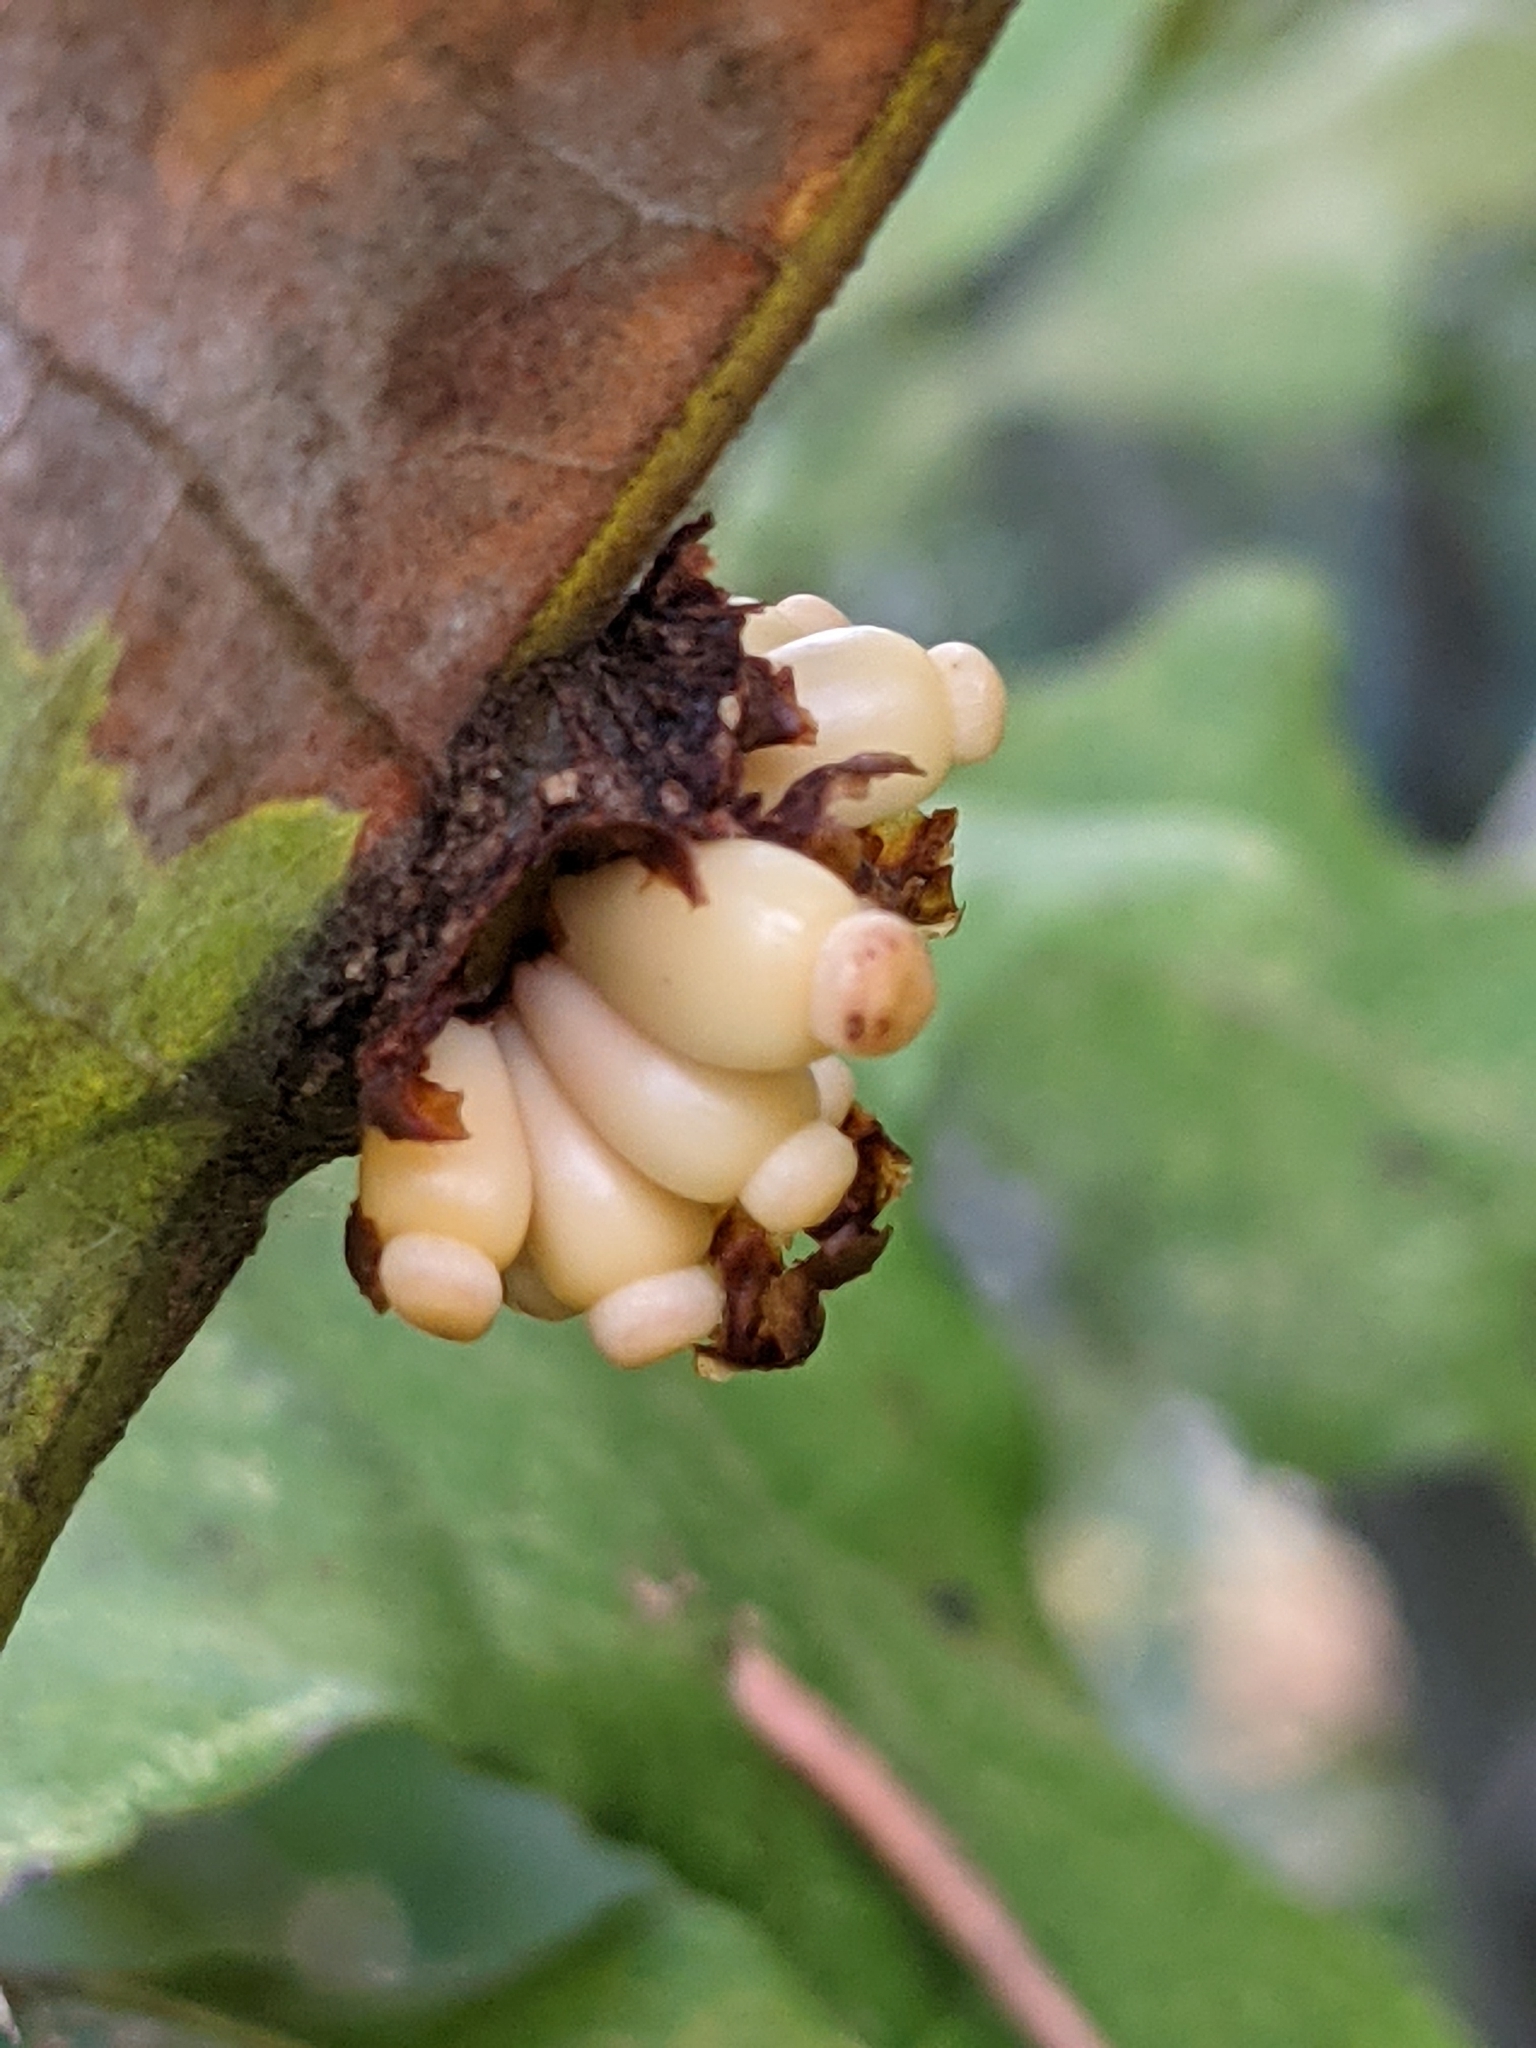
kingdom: Animalia
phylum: Arthropoda
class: Insecta
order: Hymenoptera
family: Cynipidae
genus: Kokkocynips
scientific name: Kokkocynips decidua
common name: Oak wheat gall
